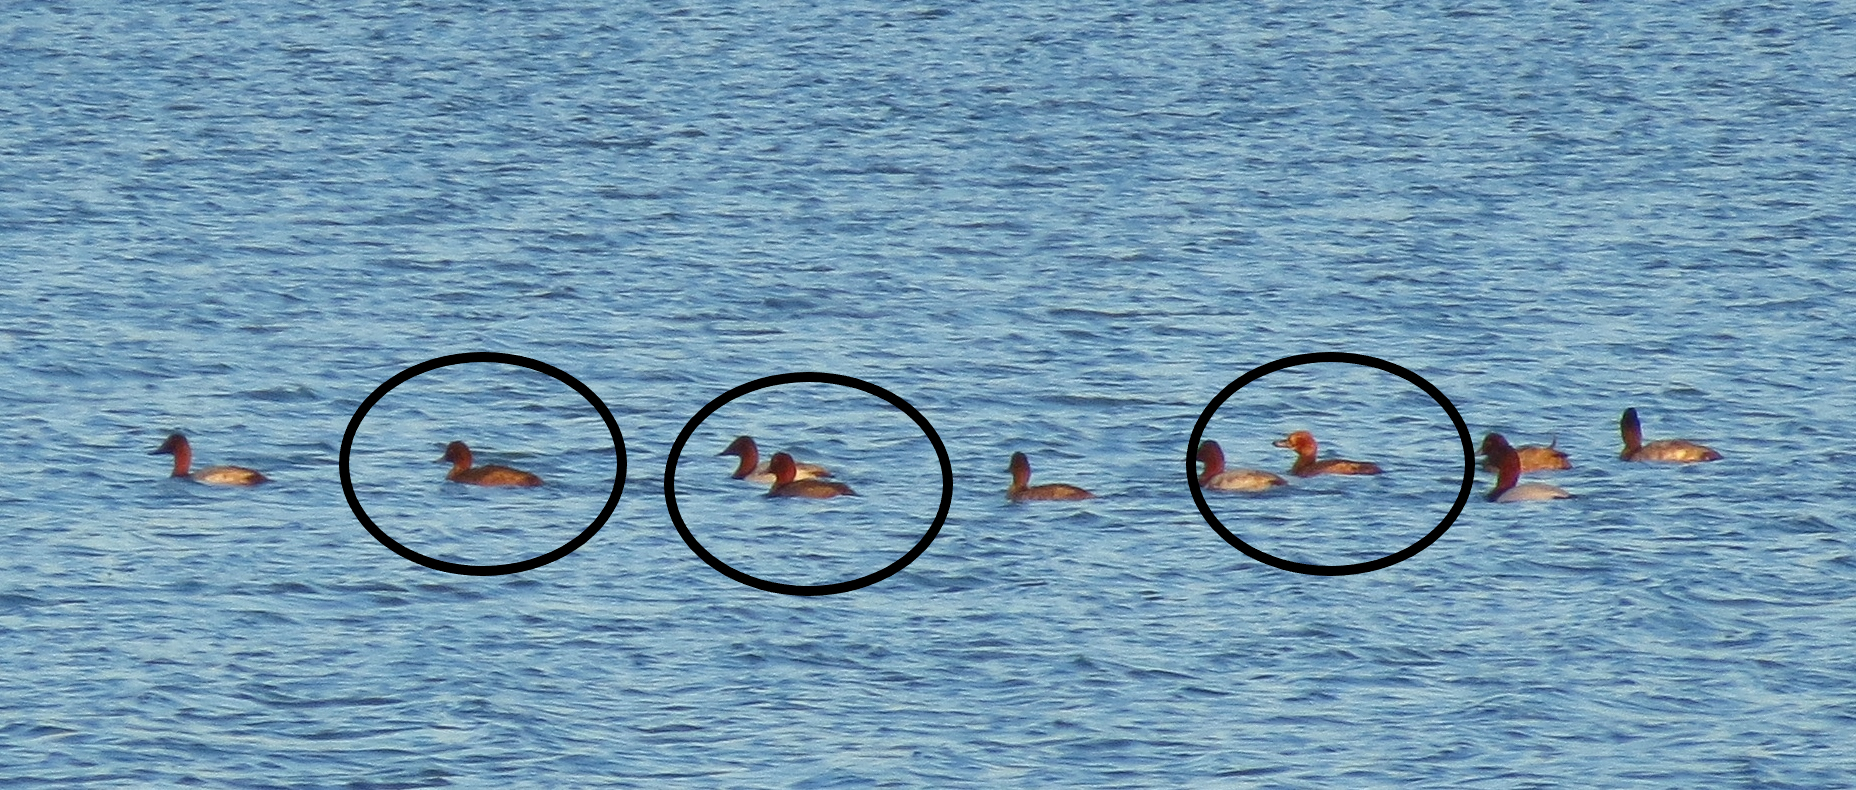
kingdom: Animalia
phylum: Chordata
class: Aves
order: Anseriformes
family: Anatidae
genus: Aythya
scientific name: Aythya americana
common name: Redhead
